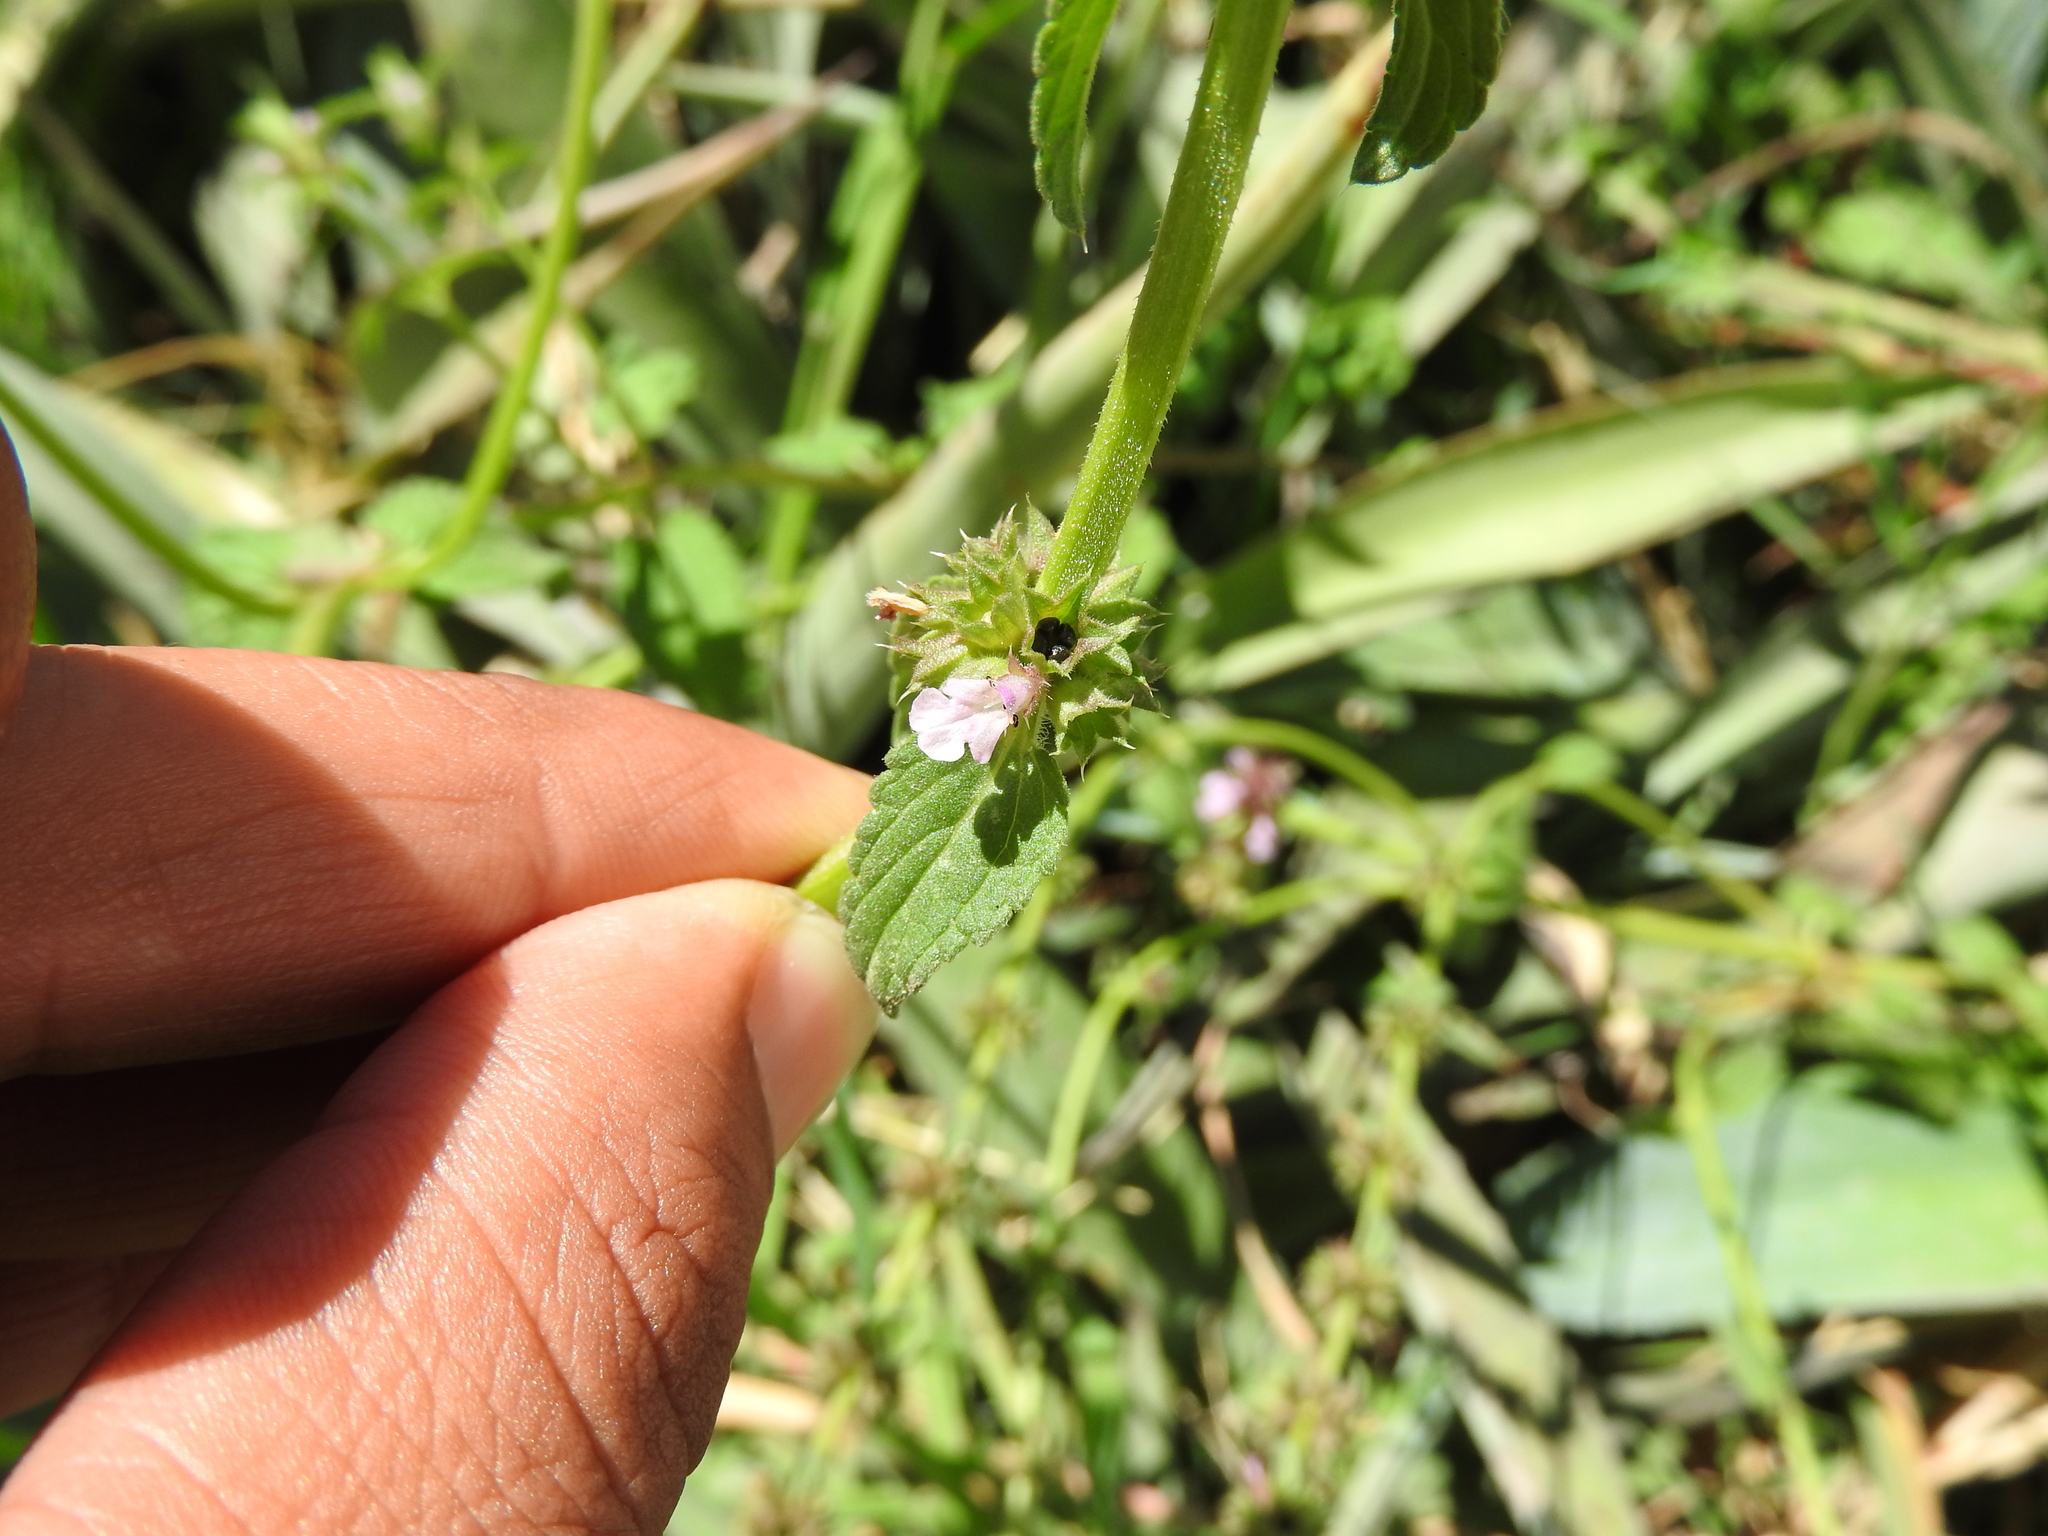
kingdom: Plantae
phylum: Tracheophyta
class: Magnoliopsida
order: Lamiales
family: Lamiaceae
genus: Stachys
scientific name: Stachys agraria
